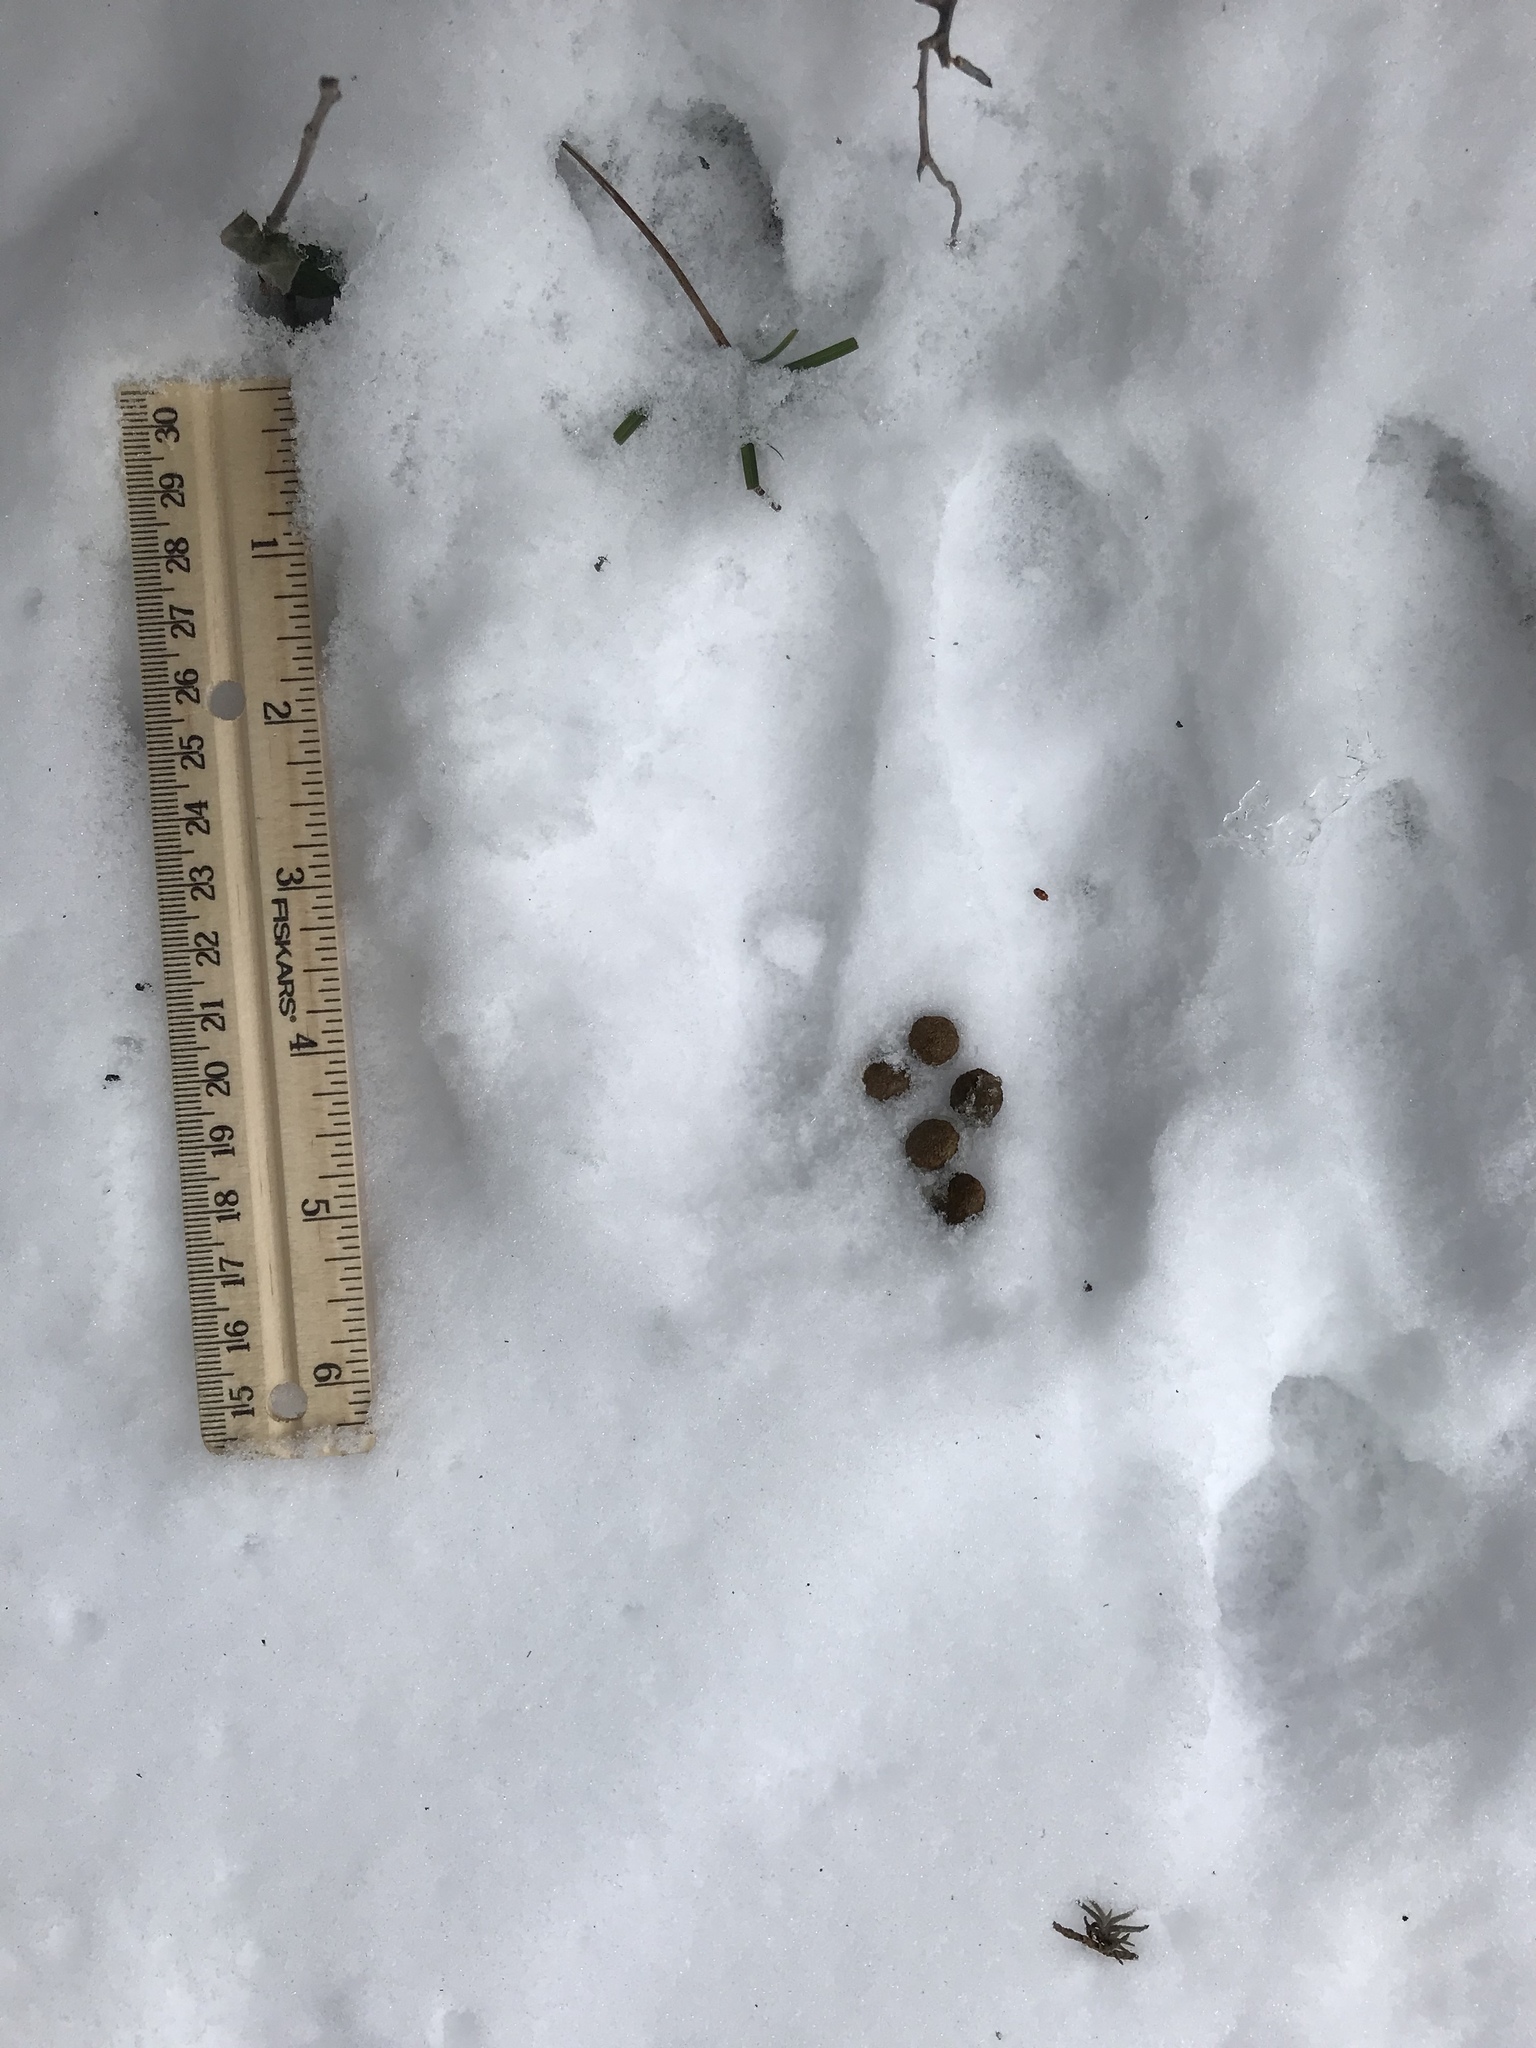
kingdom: Animalia
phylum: Chordata
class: Mammalia
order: Lagomorpha
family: Leporidae
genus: Sylvilagus
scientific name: Sylvilagus floridanus
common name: Eastern cottontail
